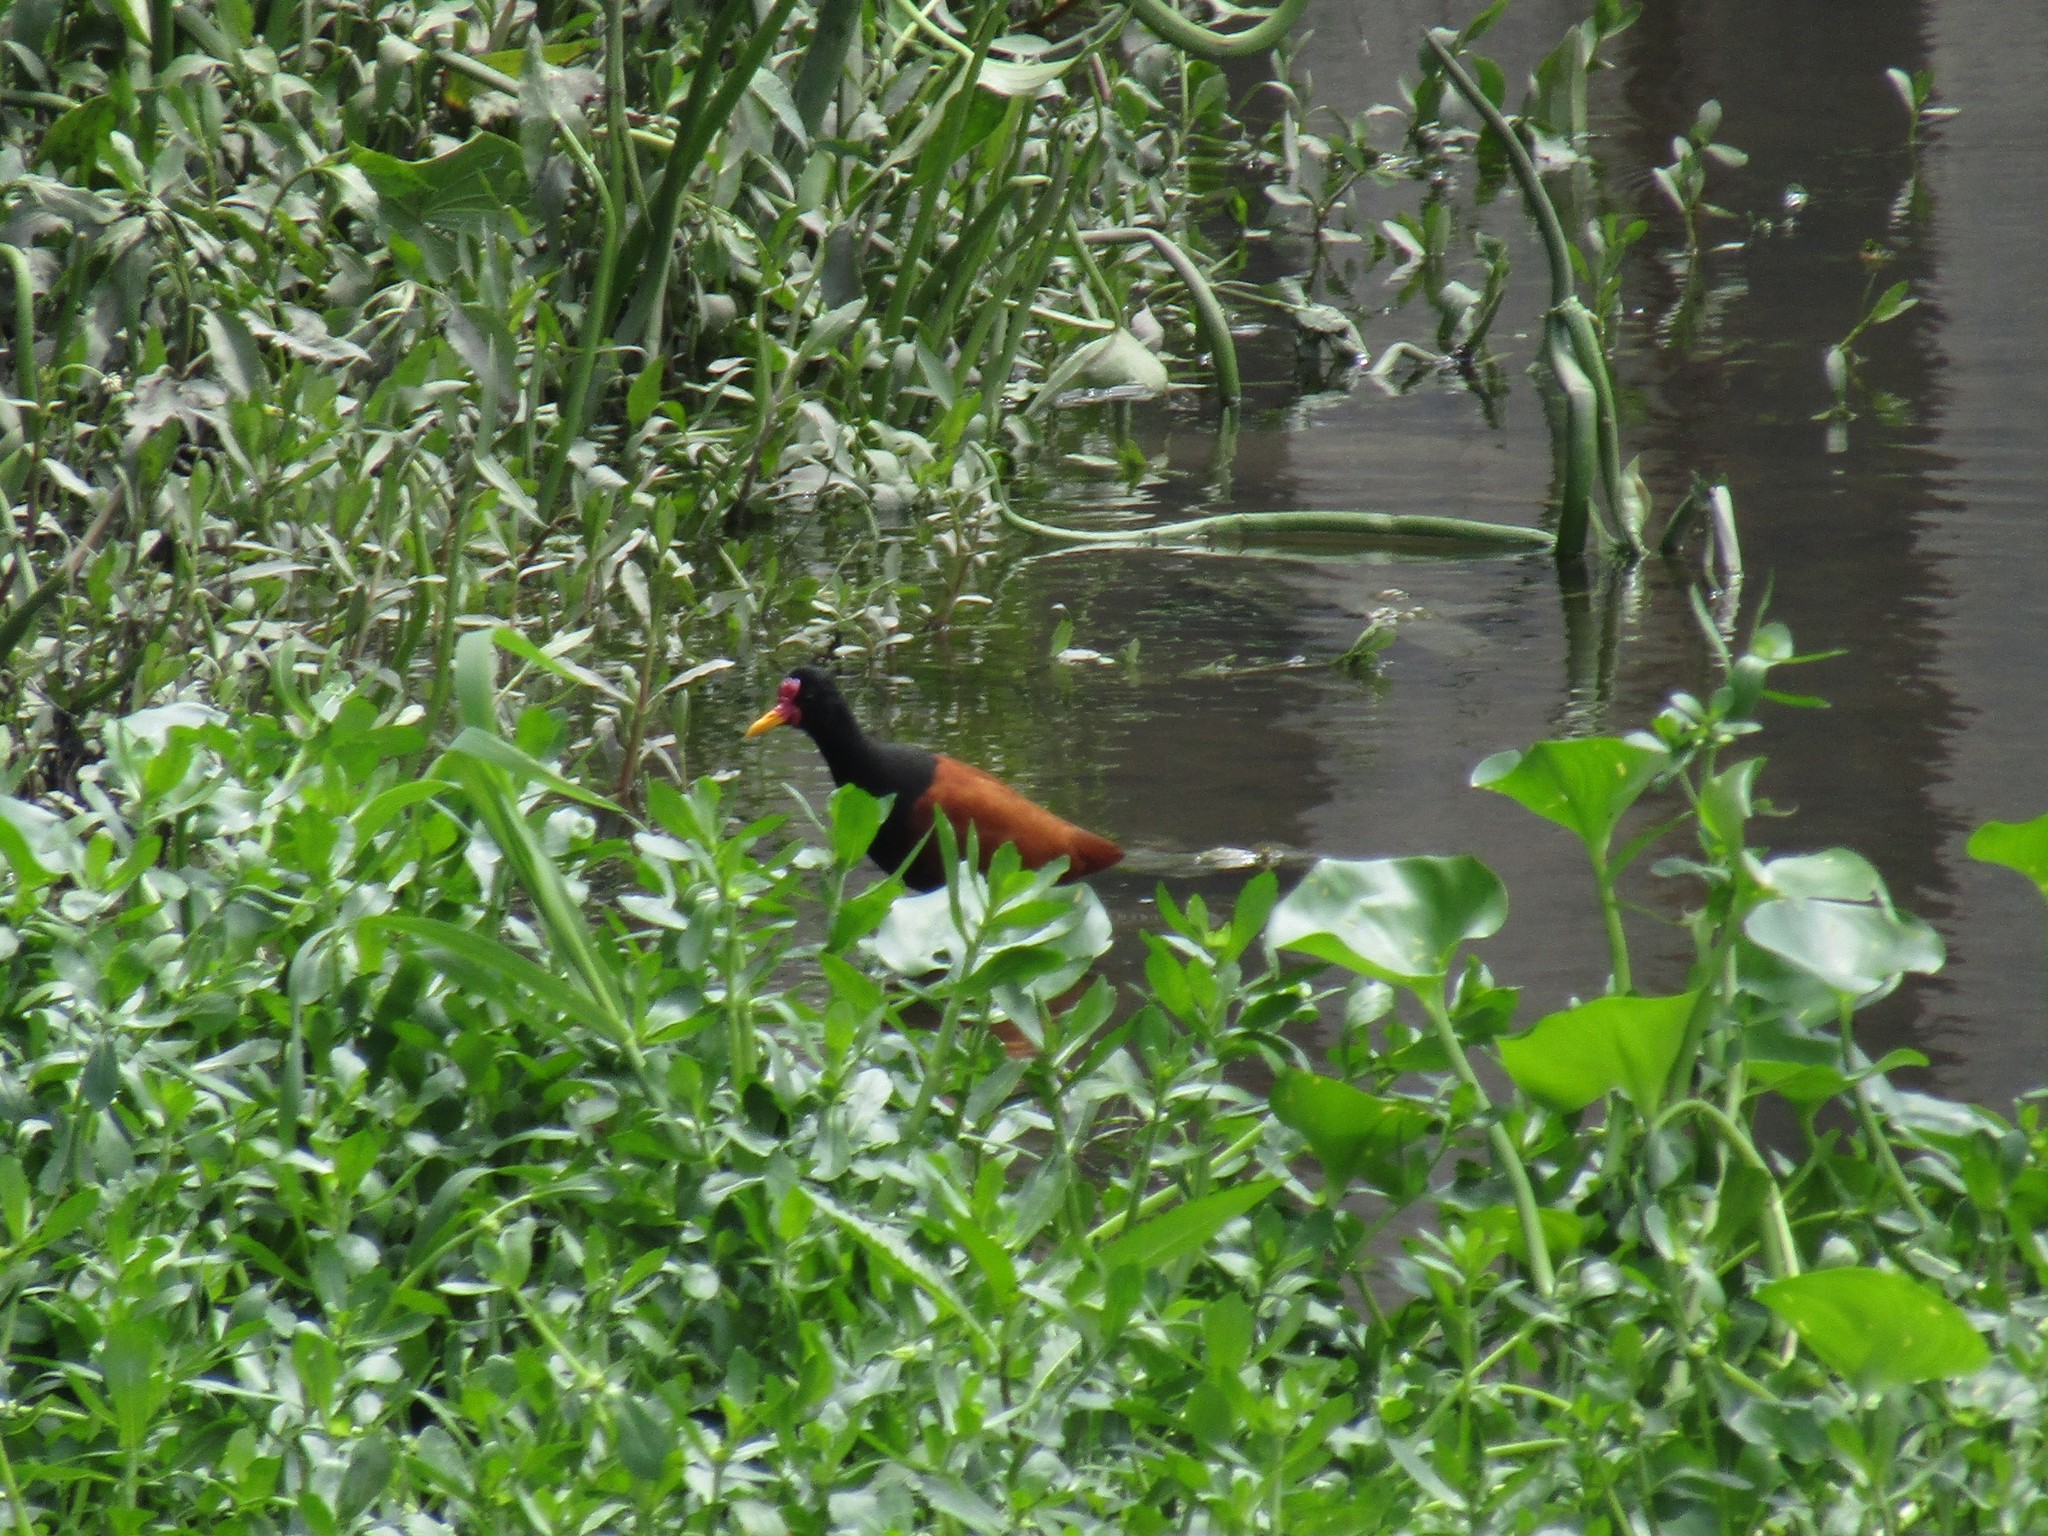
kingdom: Animalia
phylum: Chordata
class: Aves
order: Charadriiformes
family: Jacanidae
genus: Jacana
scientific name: Jacana jacana
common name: Wattled jacana
